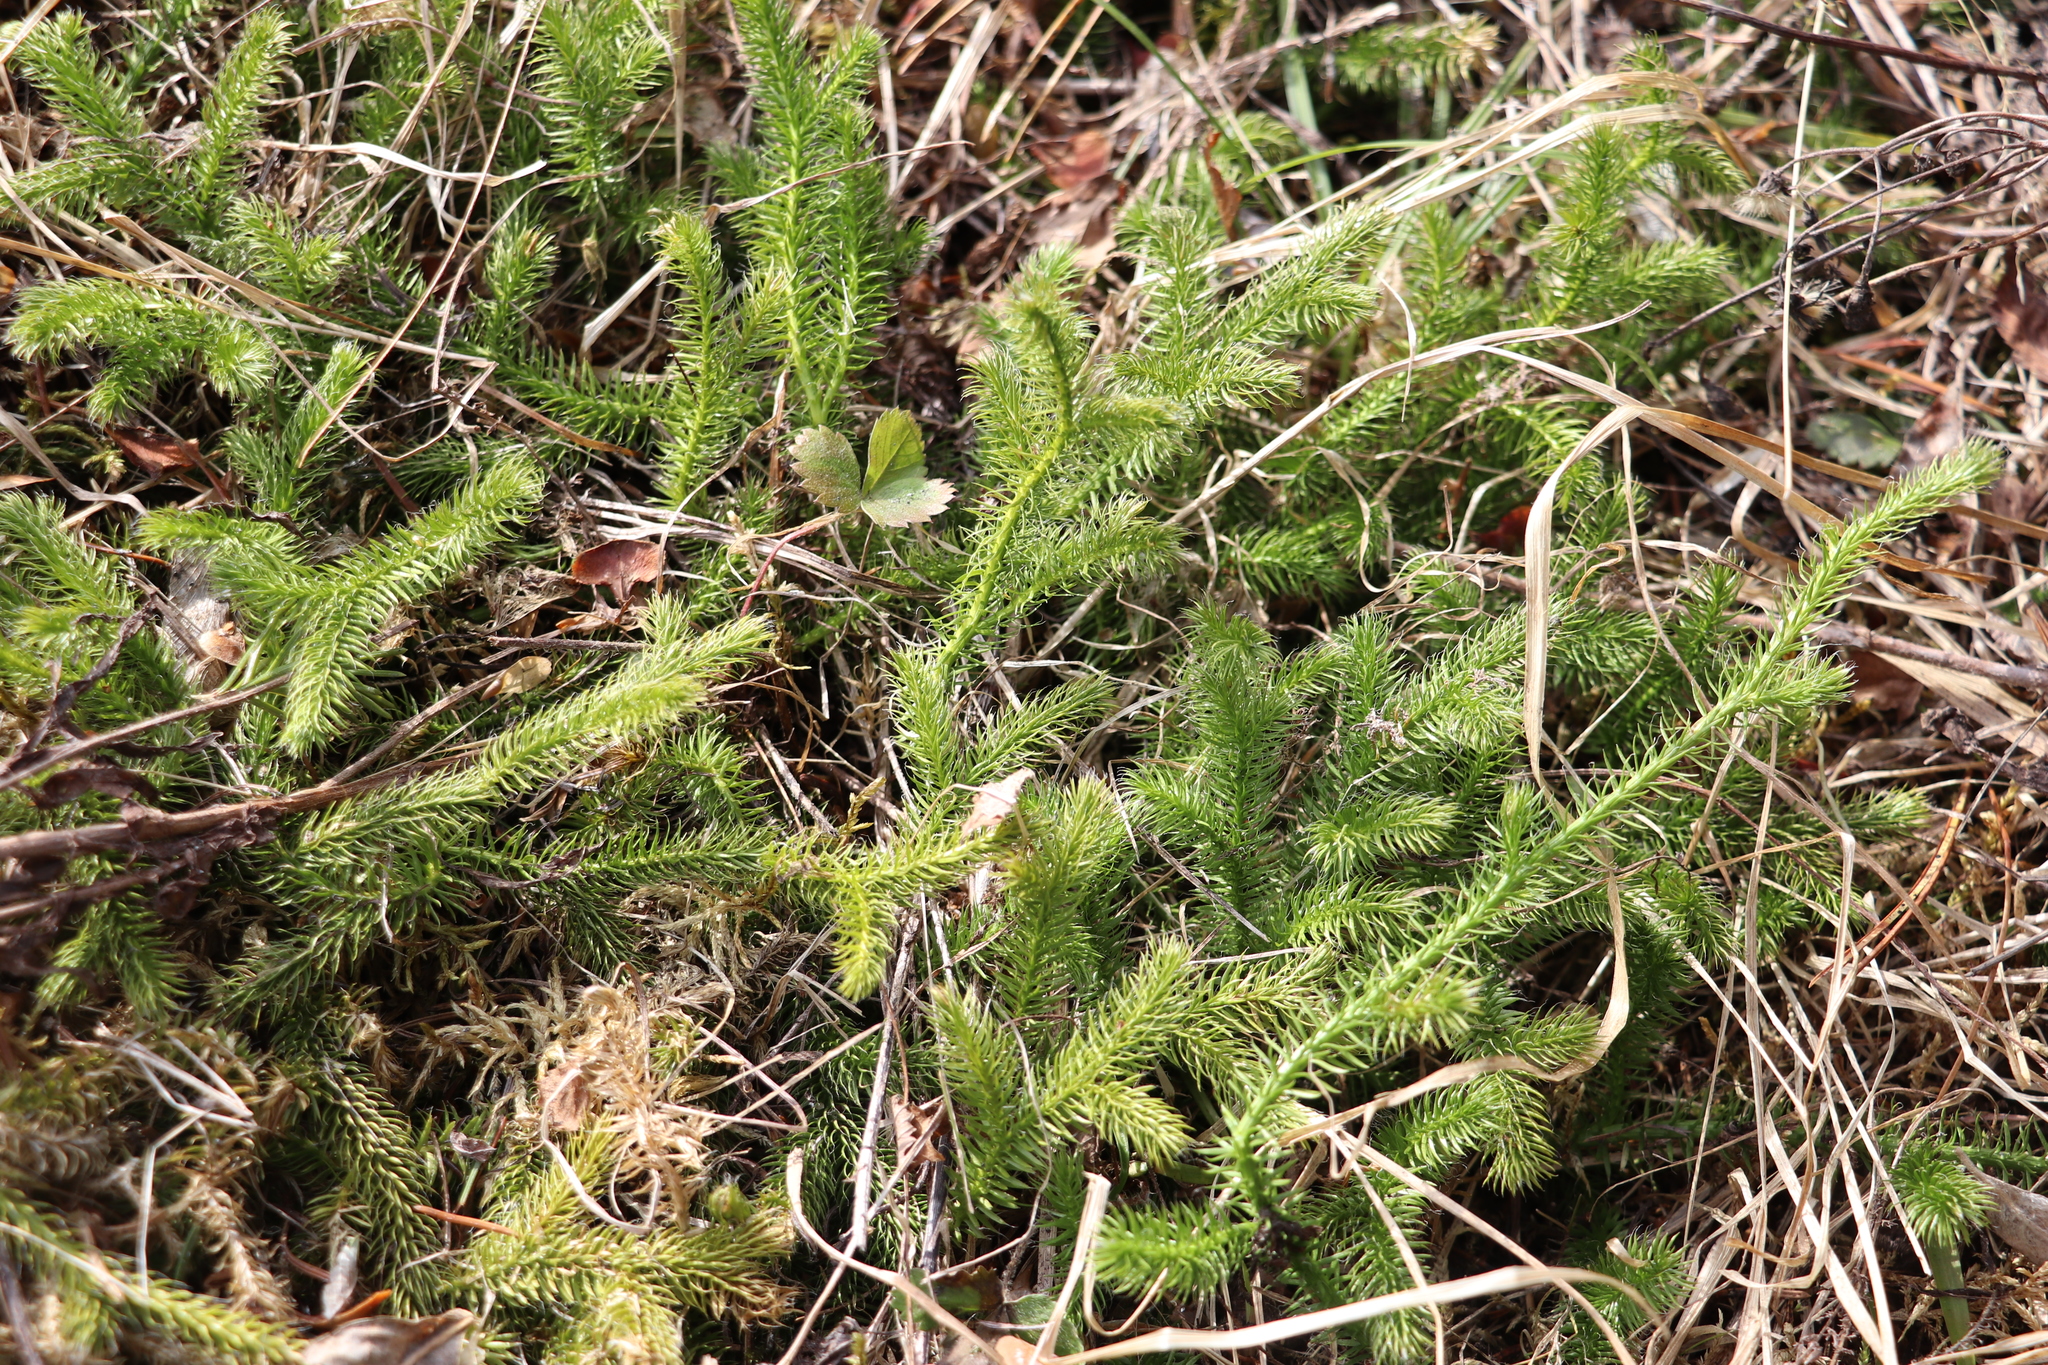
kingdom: Plantae
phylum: Tracheophyta
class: Lycopodiopsida
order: Lycopodiales
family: Lycopodiaceae
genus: Lycopodium
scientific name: Lycopodium clavatum
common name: Stag's-horn clubmoss
